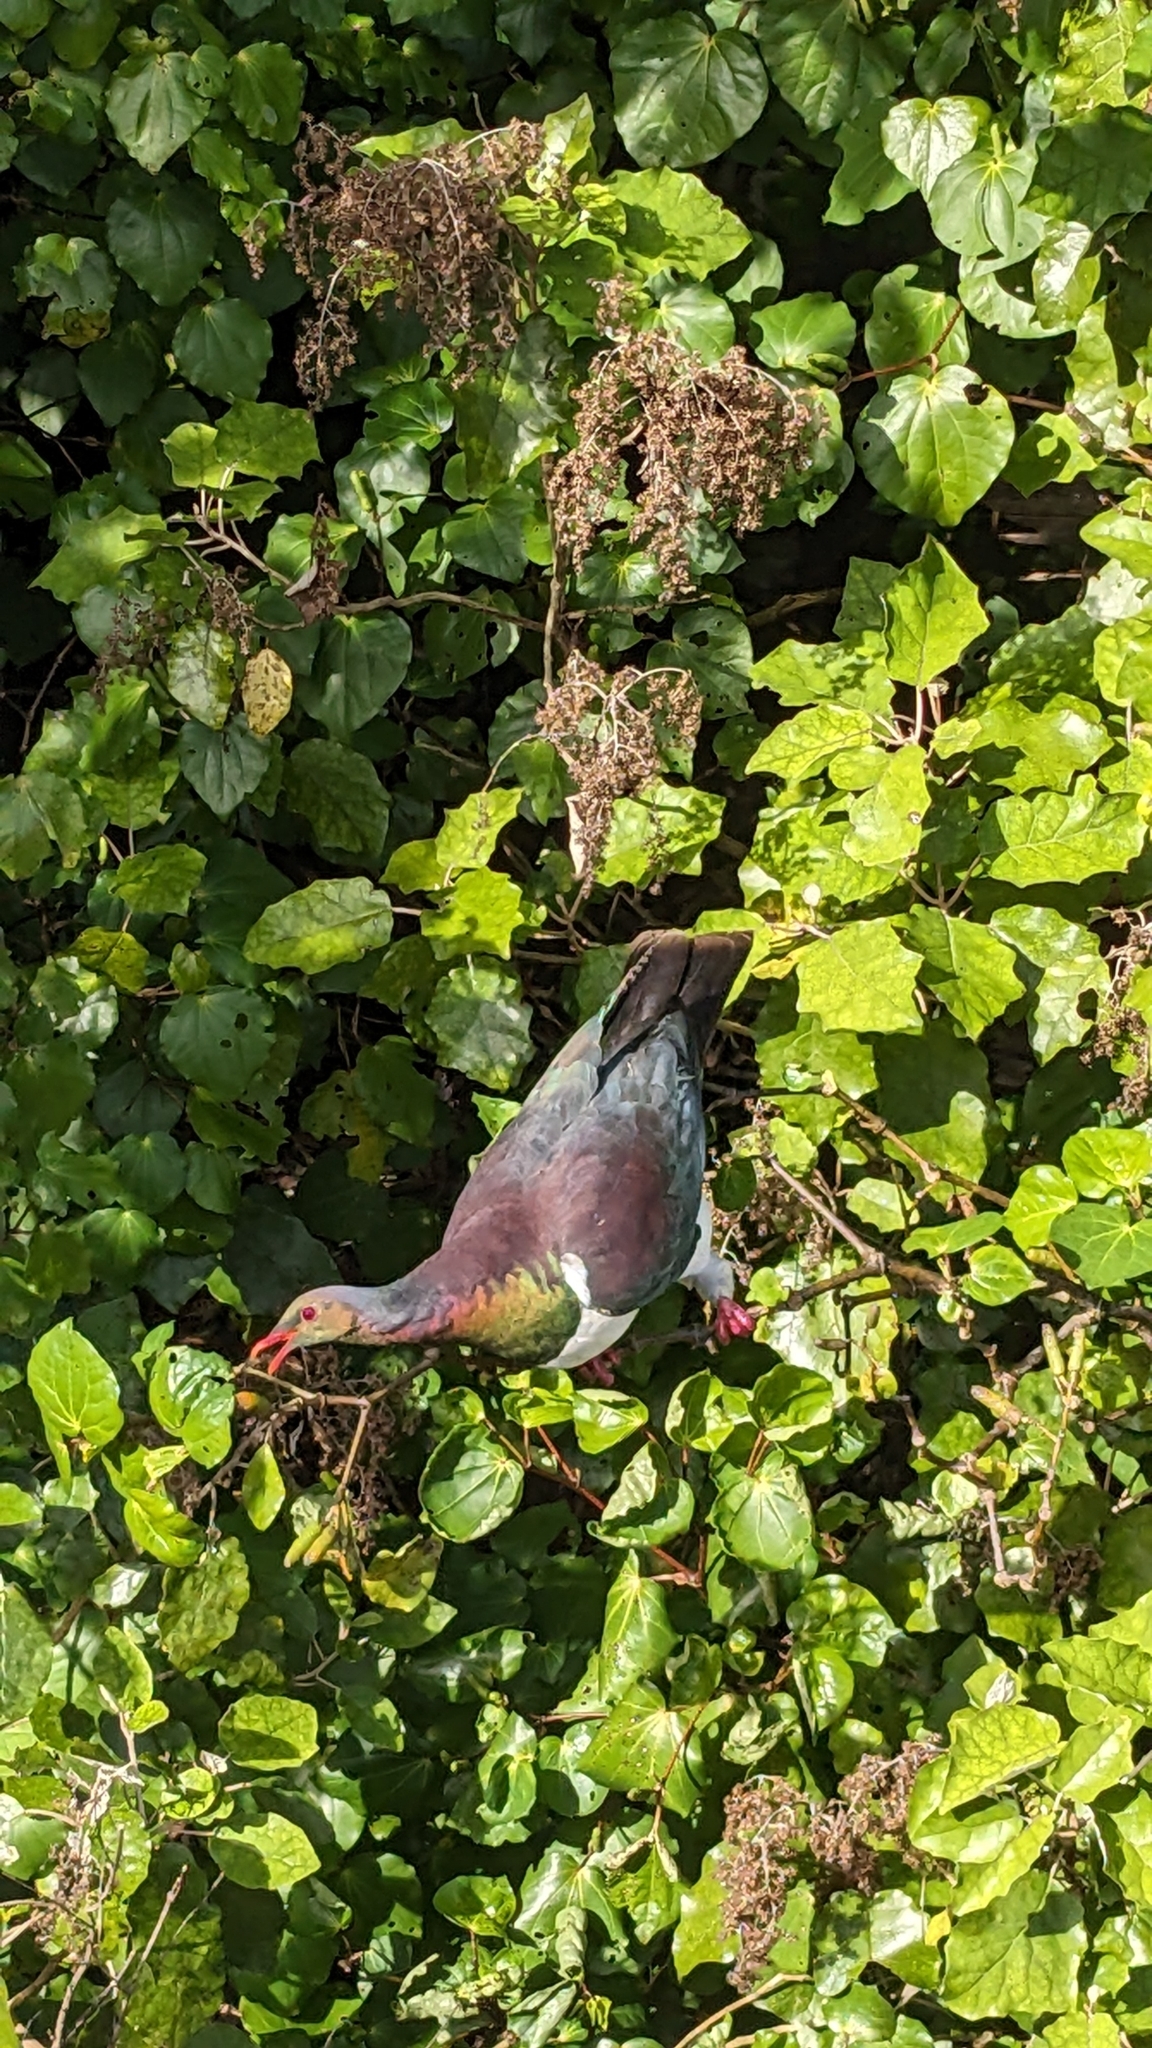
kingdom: Animalia
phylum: Chordata
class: Aves
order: Columbiformes
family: Columbidae
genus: Hemiphaga
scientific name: Hemiphaga novaeseelandiae
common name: New zealand pigeon
